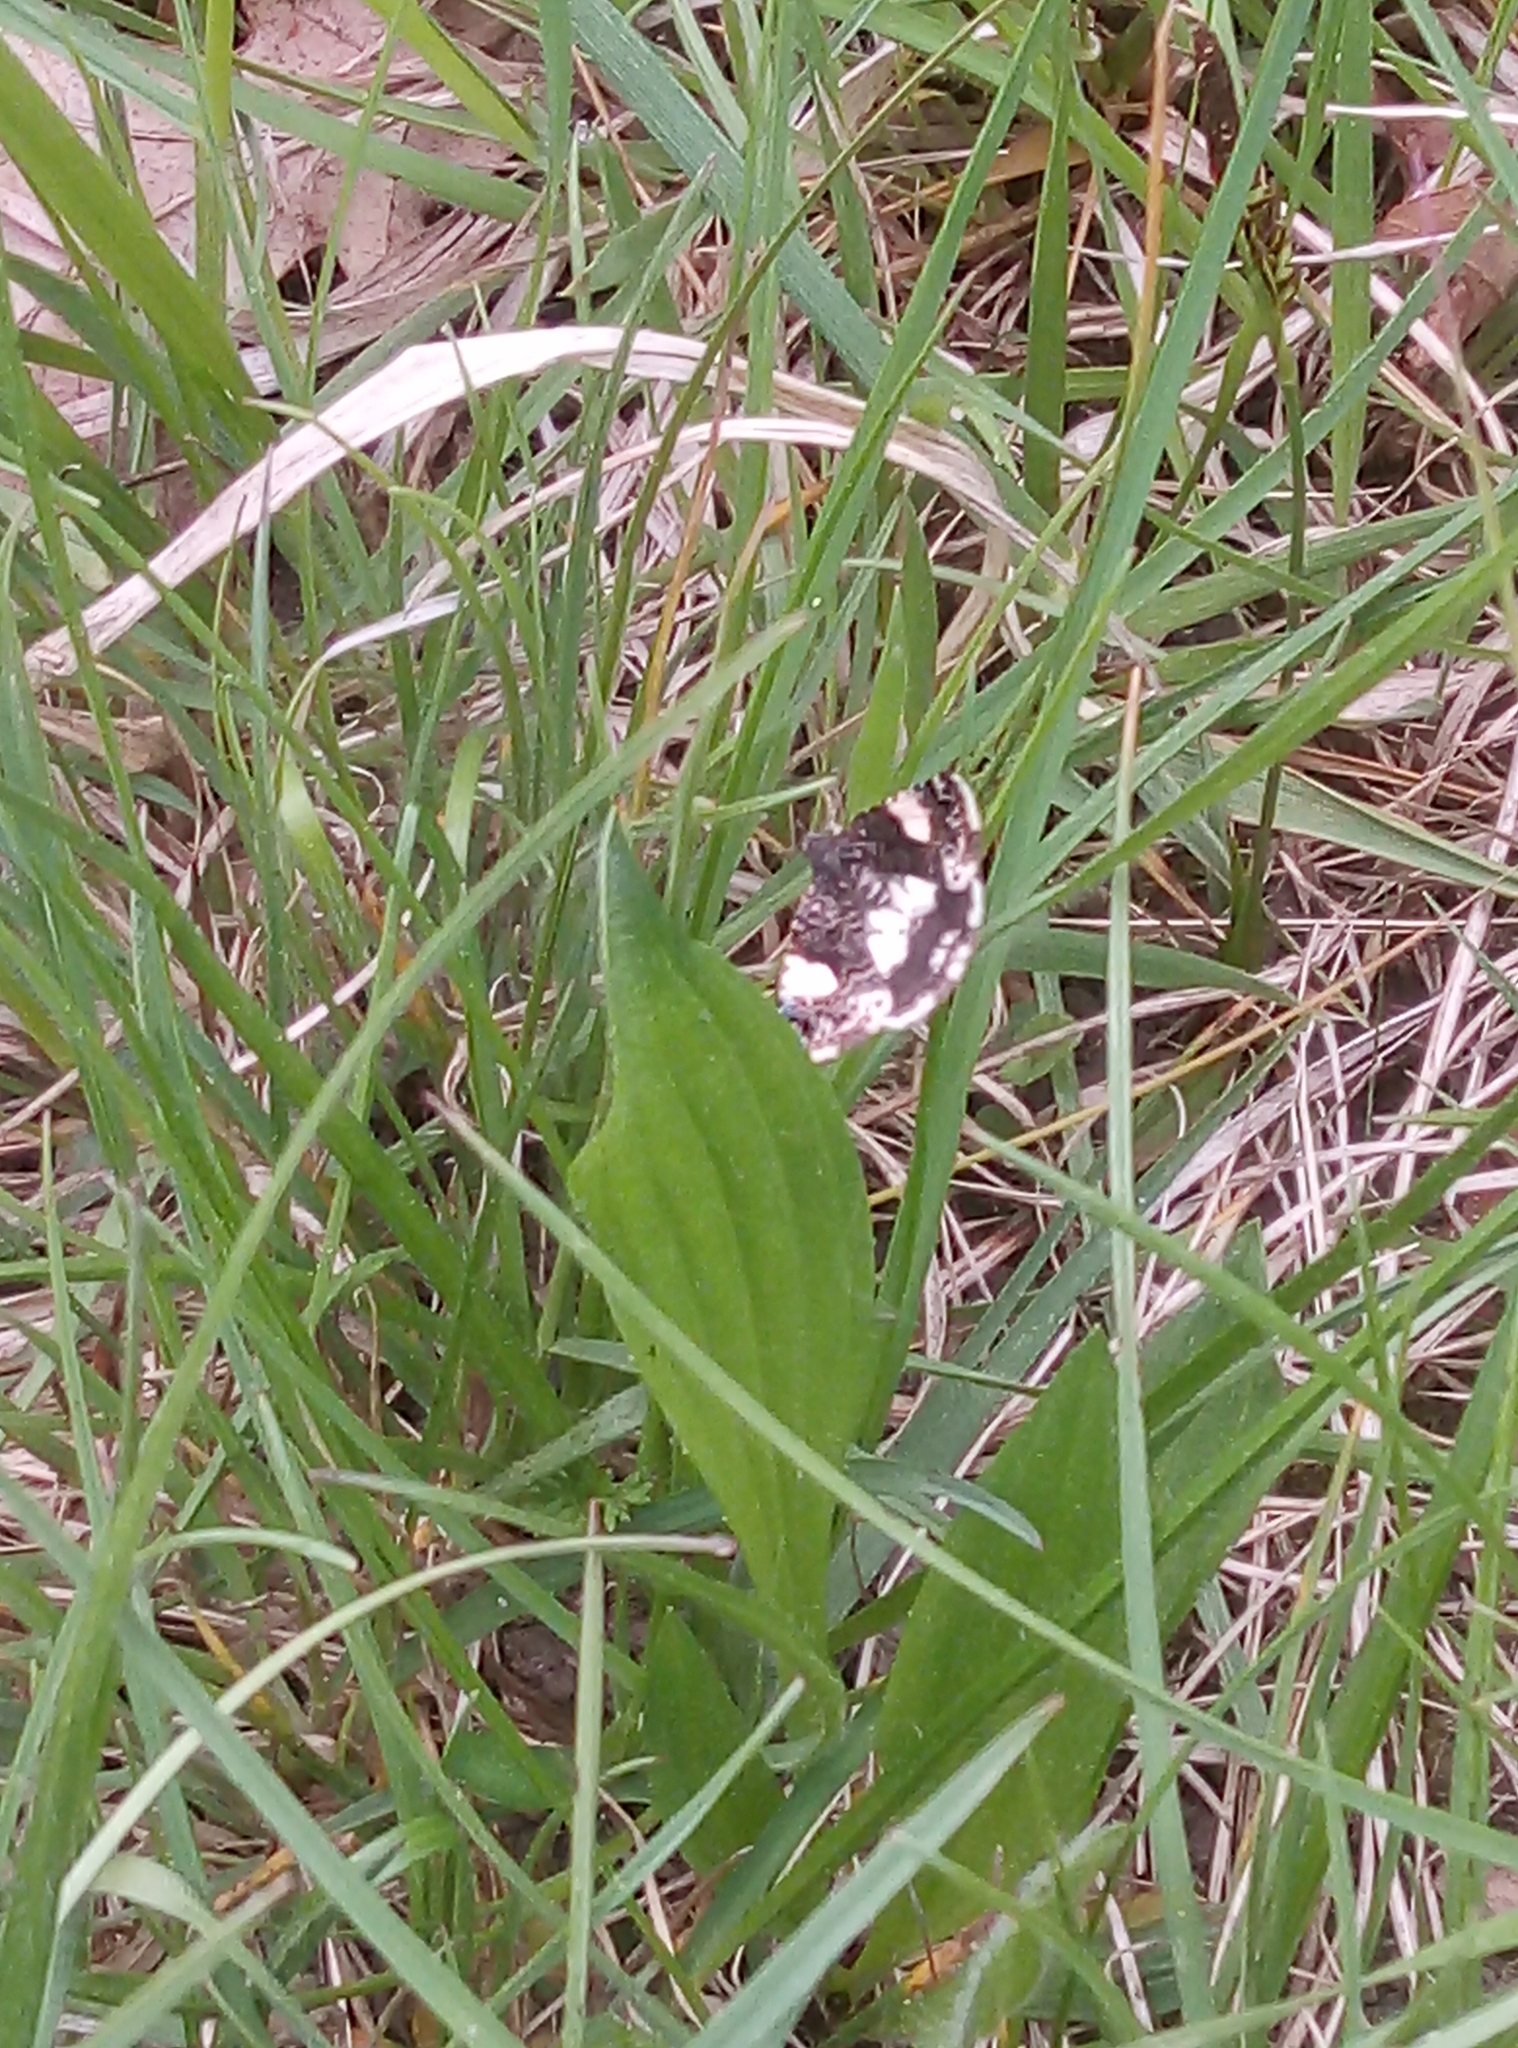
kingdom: Animalia
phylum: Arthropoda
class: Insecta
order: Lepidoptera
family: Erebidae
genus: Tyta
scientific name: Tyta luctuosa
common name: Four-spotted
